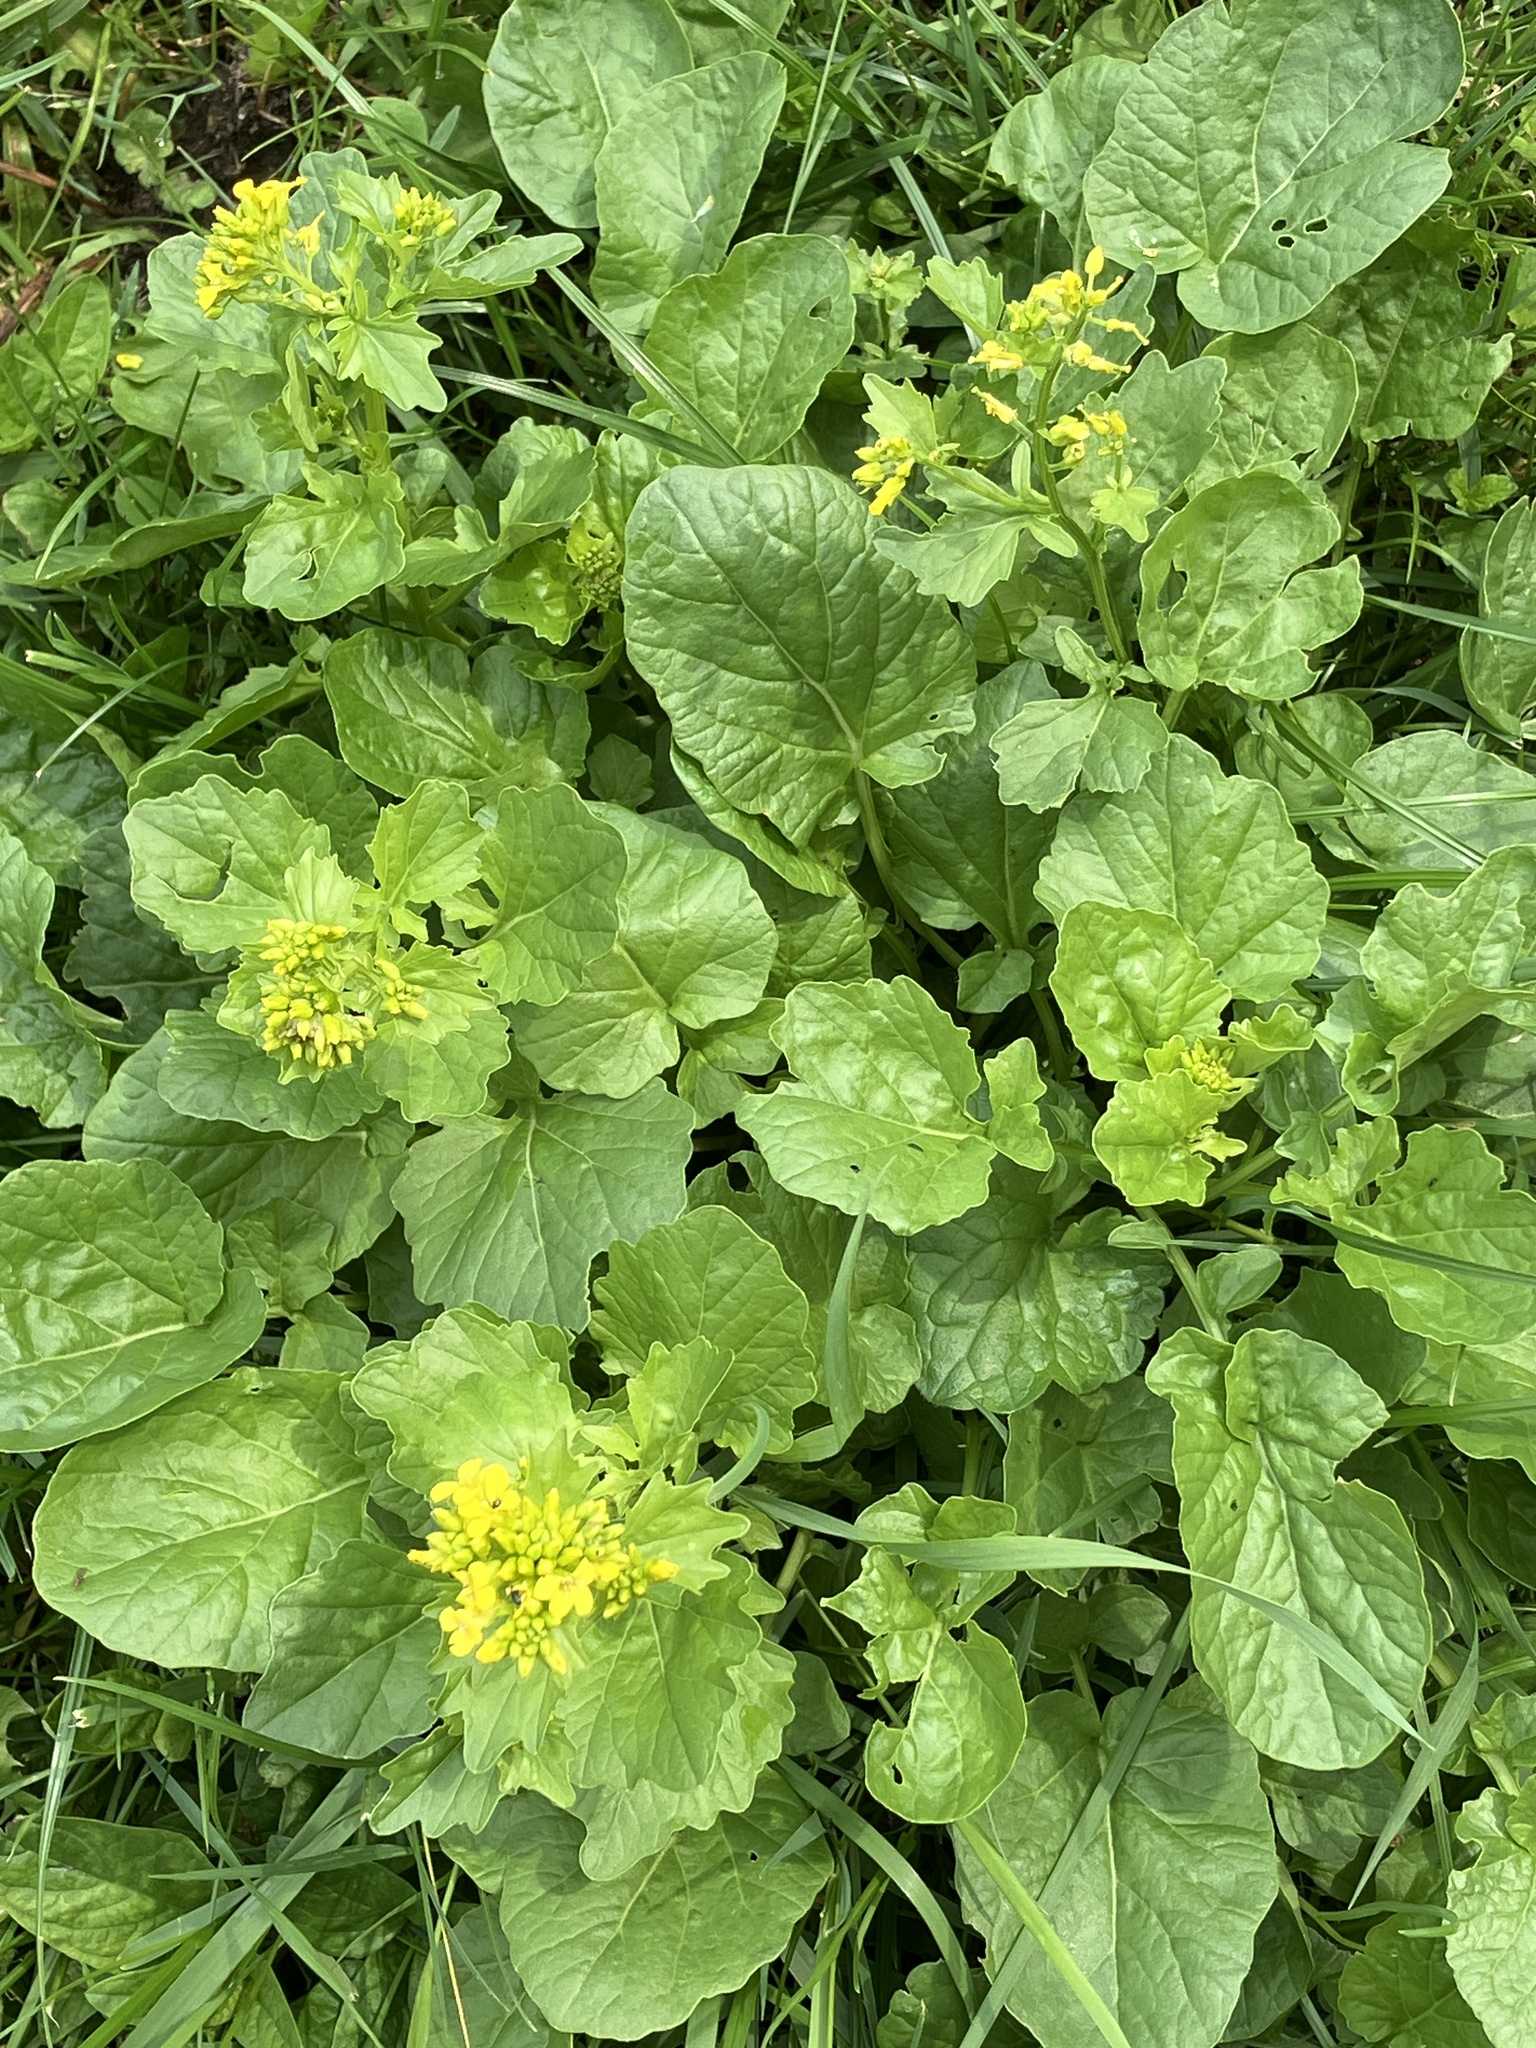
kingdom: Plantae
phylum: Tracheophyta
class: Magnoliopsida
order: Brassicales
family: Brassicaceae
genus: Barbarea
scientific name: Barbarea vulgaris
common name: Cressy-greens
